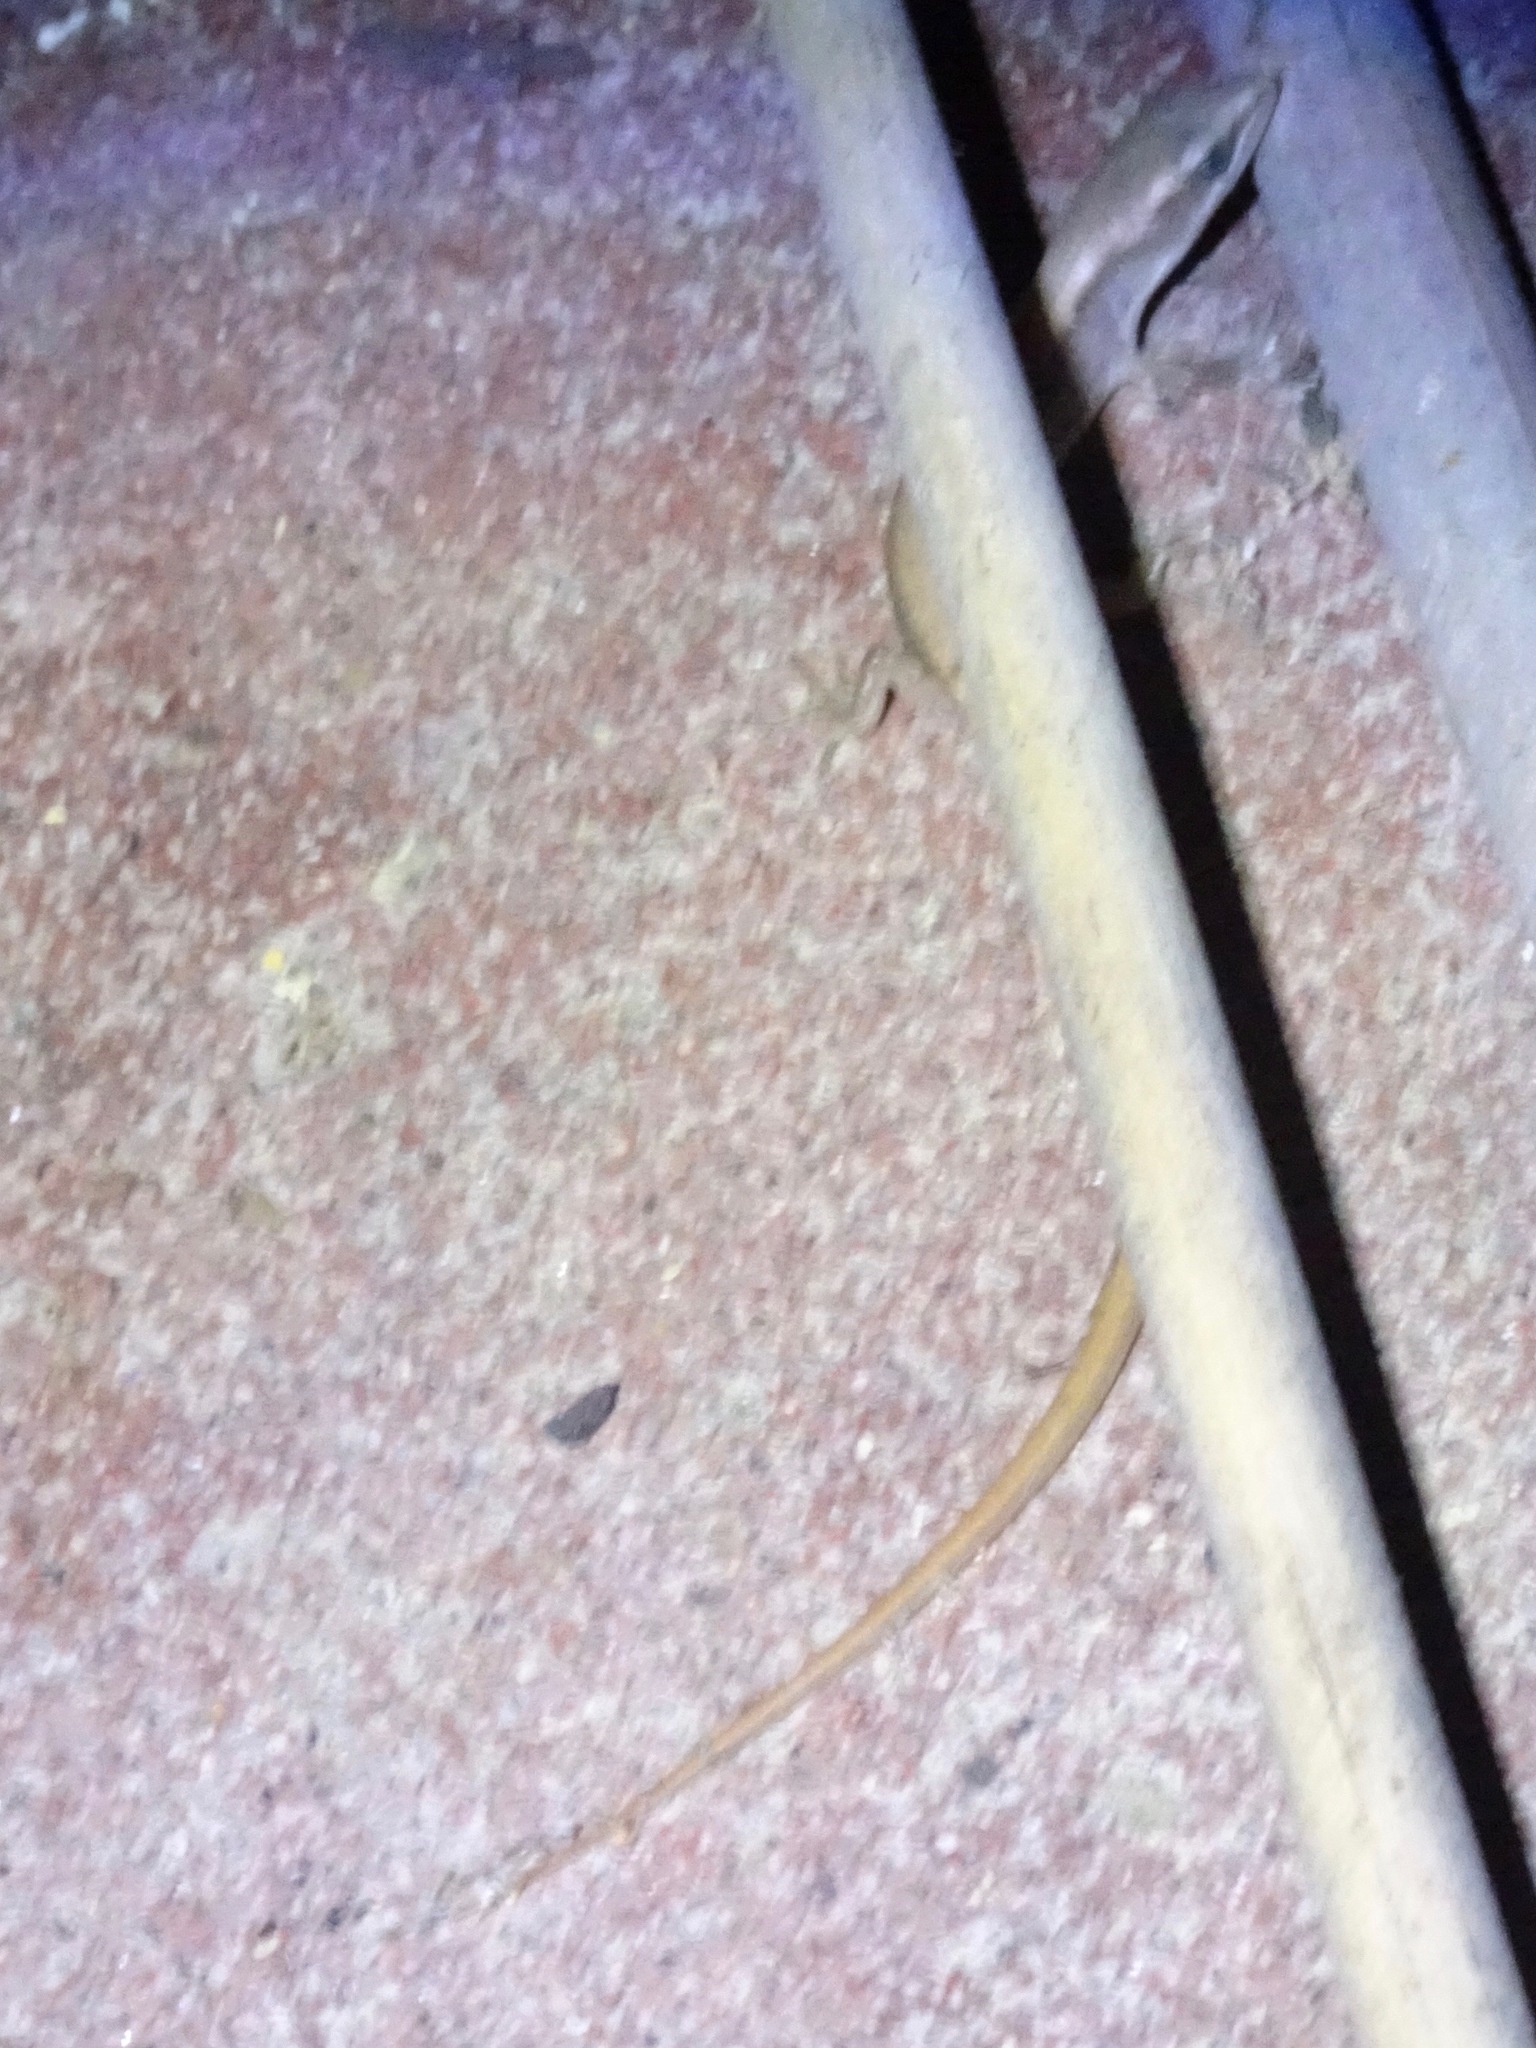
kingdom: Animalia
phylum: Chordata
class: Squamata
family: Anguidae
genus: Elgaria
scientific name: Elgaria multicarinata
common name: Southern alligator lizard
